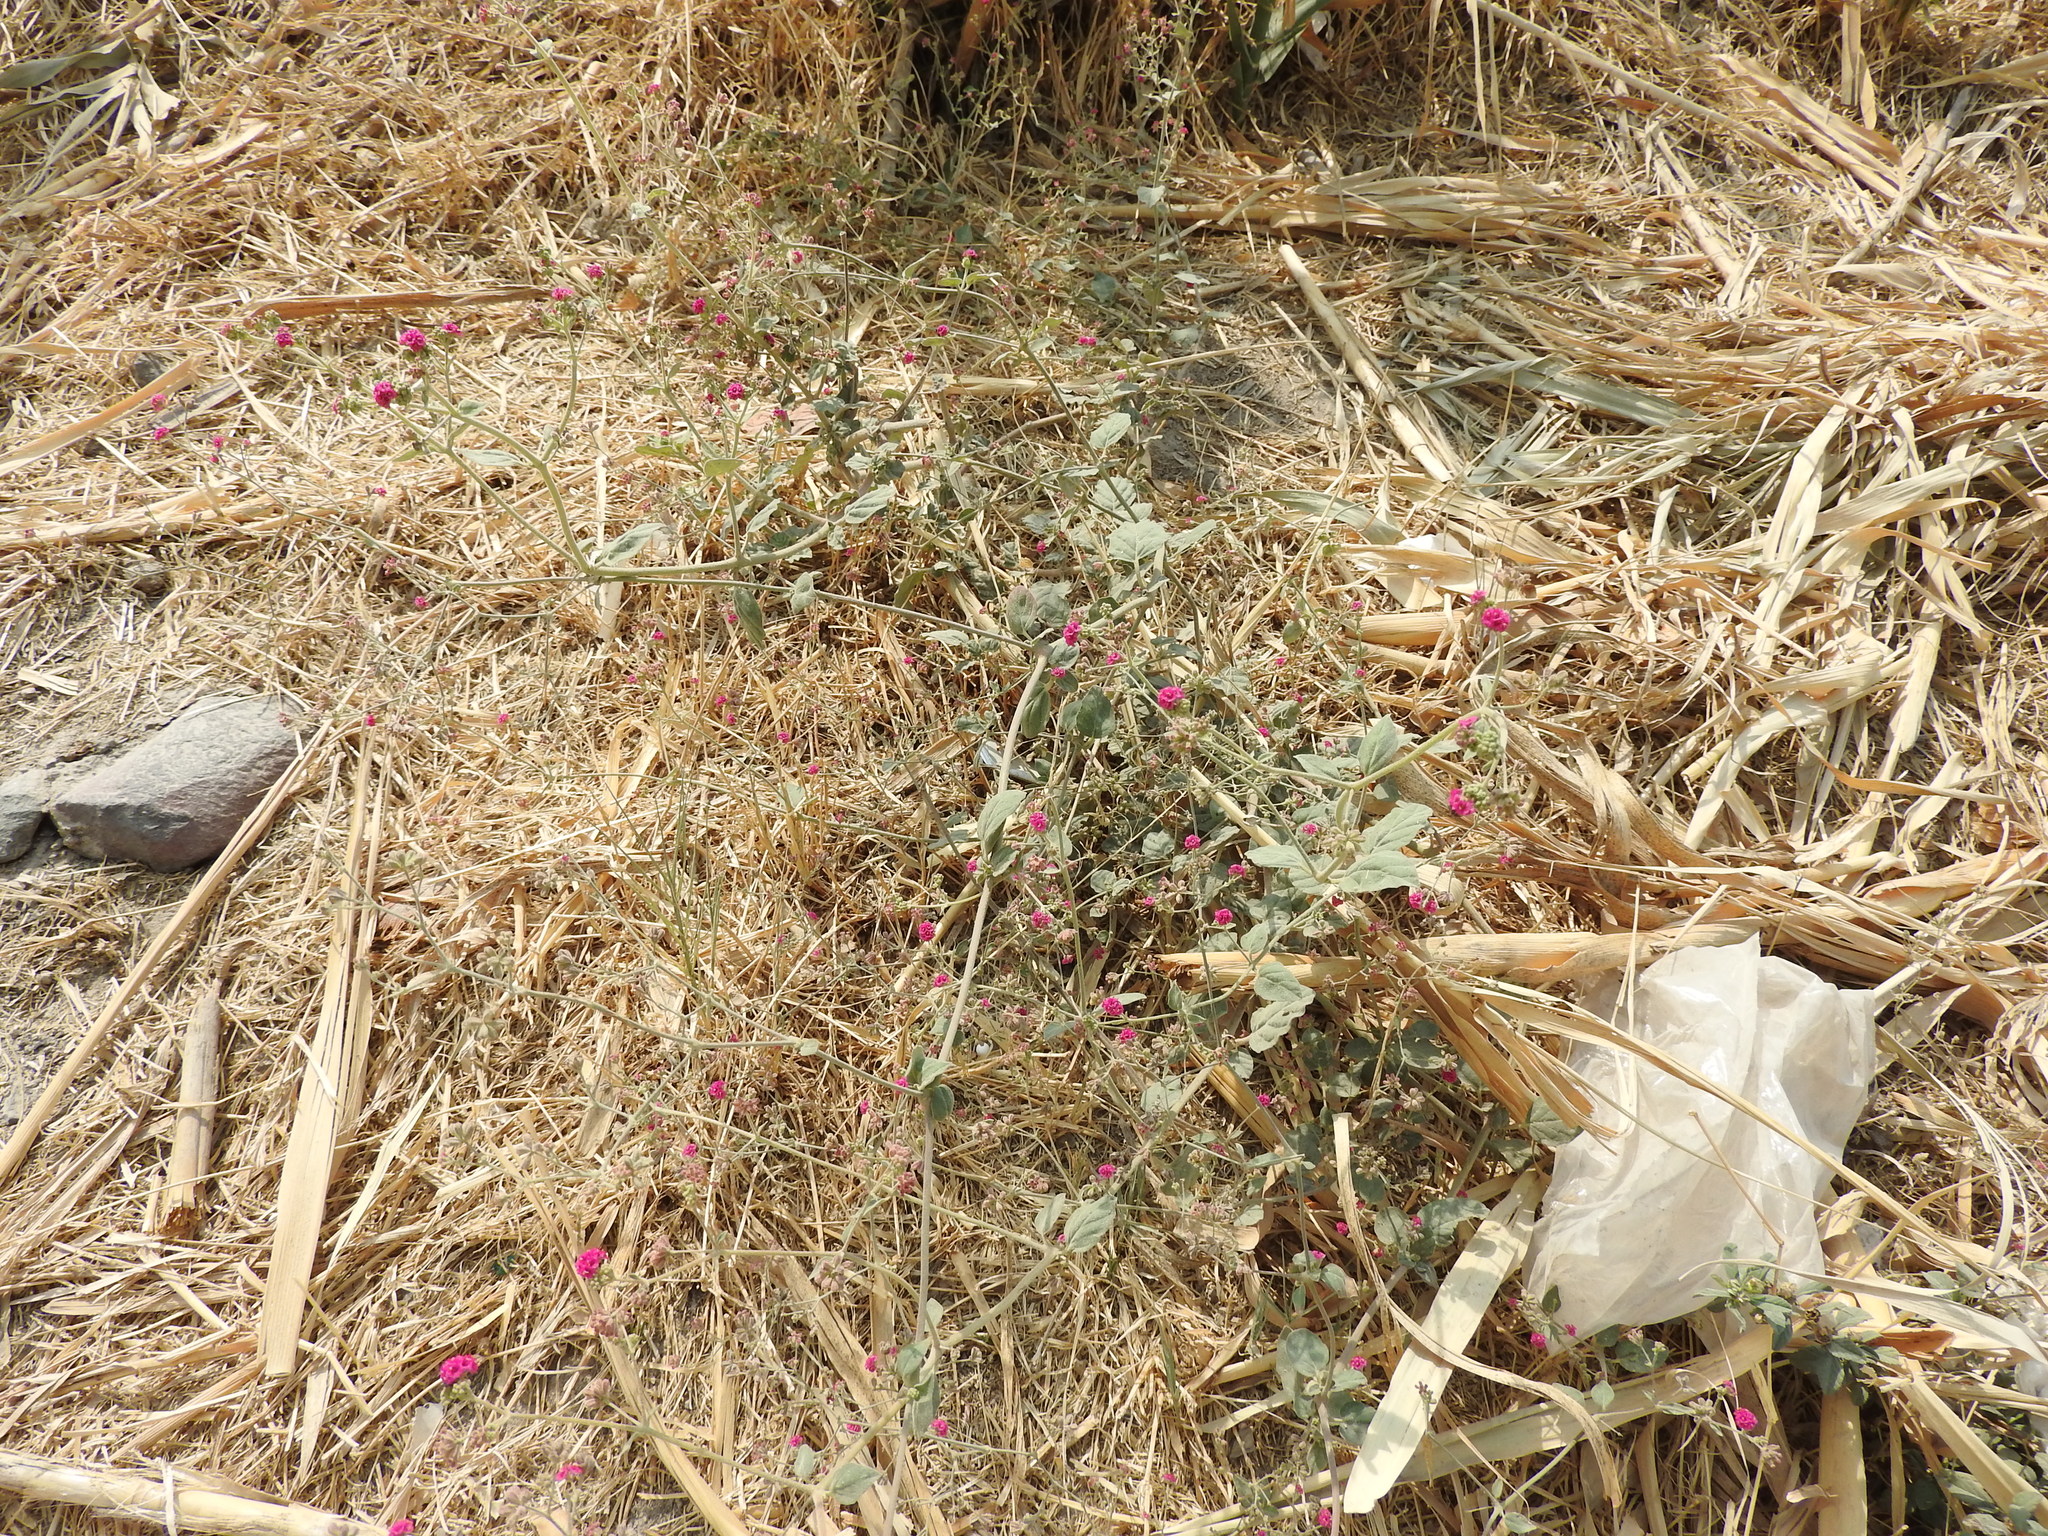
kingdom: Plantae
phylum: Tracheophyta
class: Magnoliopsida
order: Caryophyllales
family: Nyctaginaceae
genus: Boerhavia
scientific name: Boerhavia coccinea
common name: Scarlet spiderling
